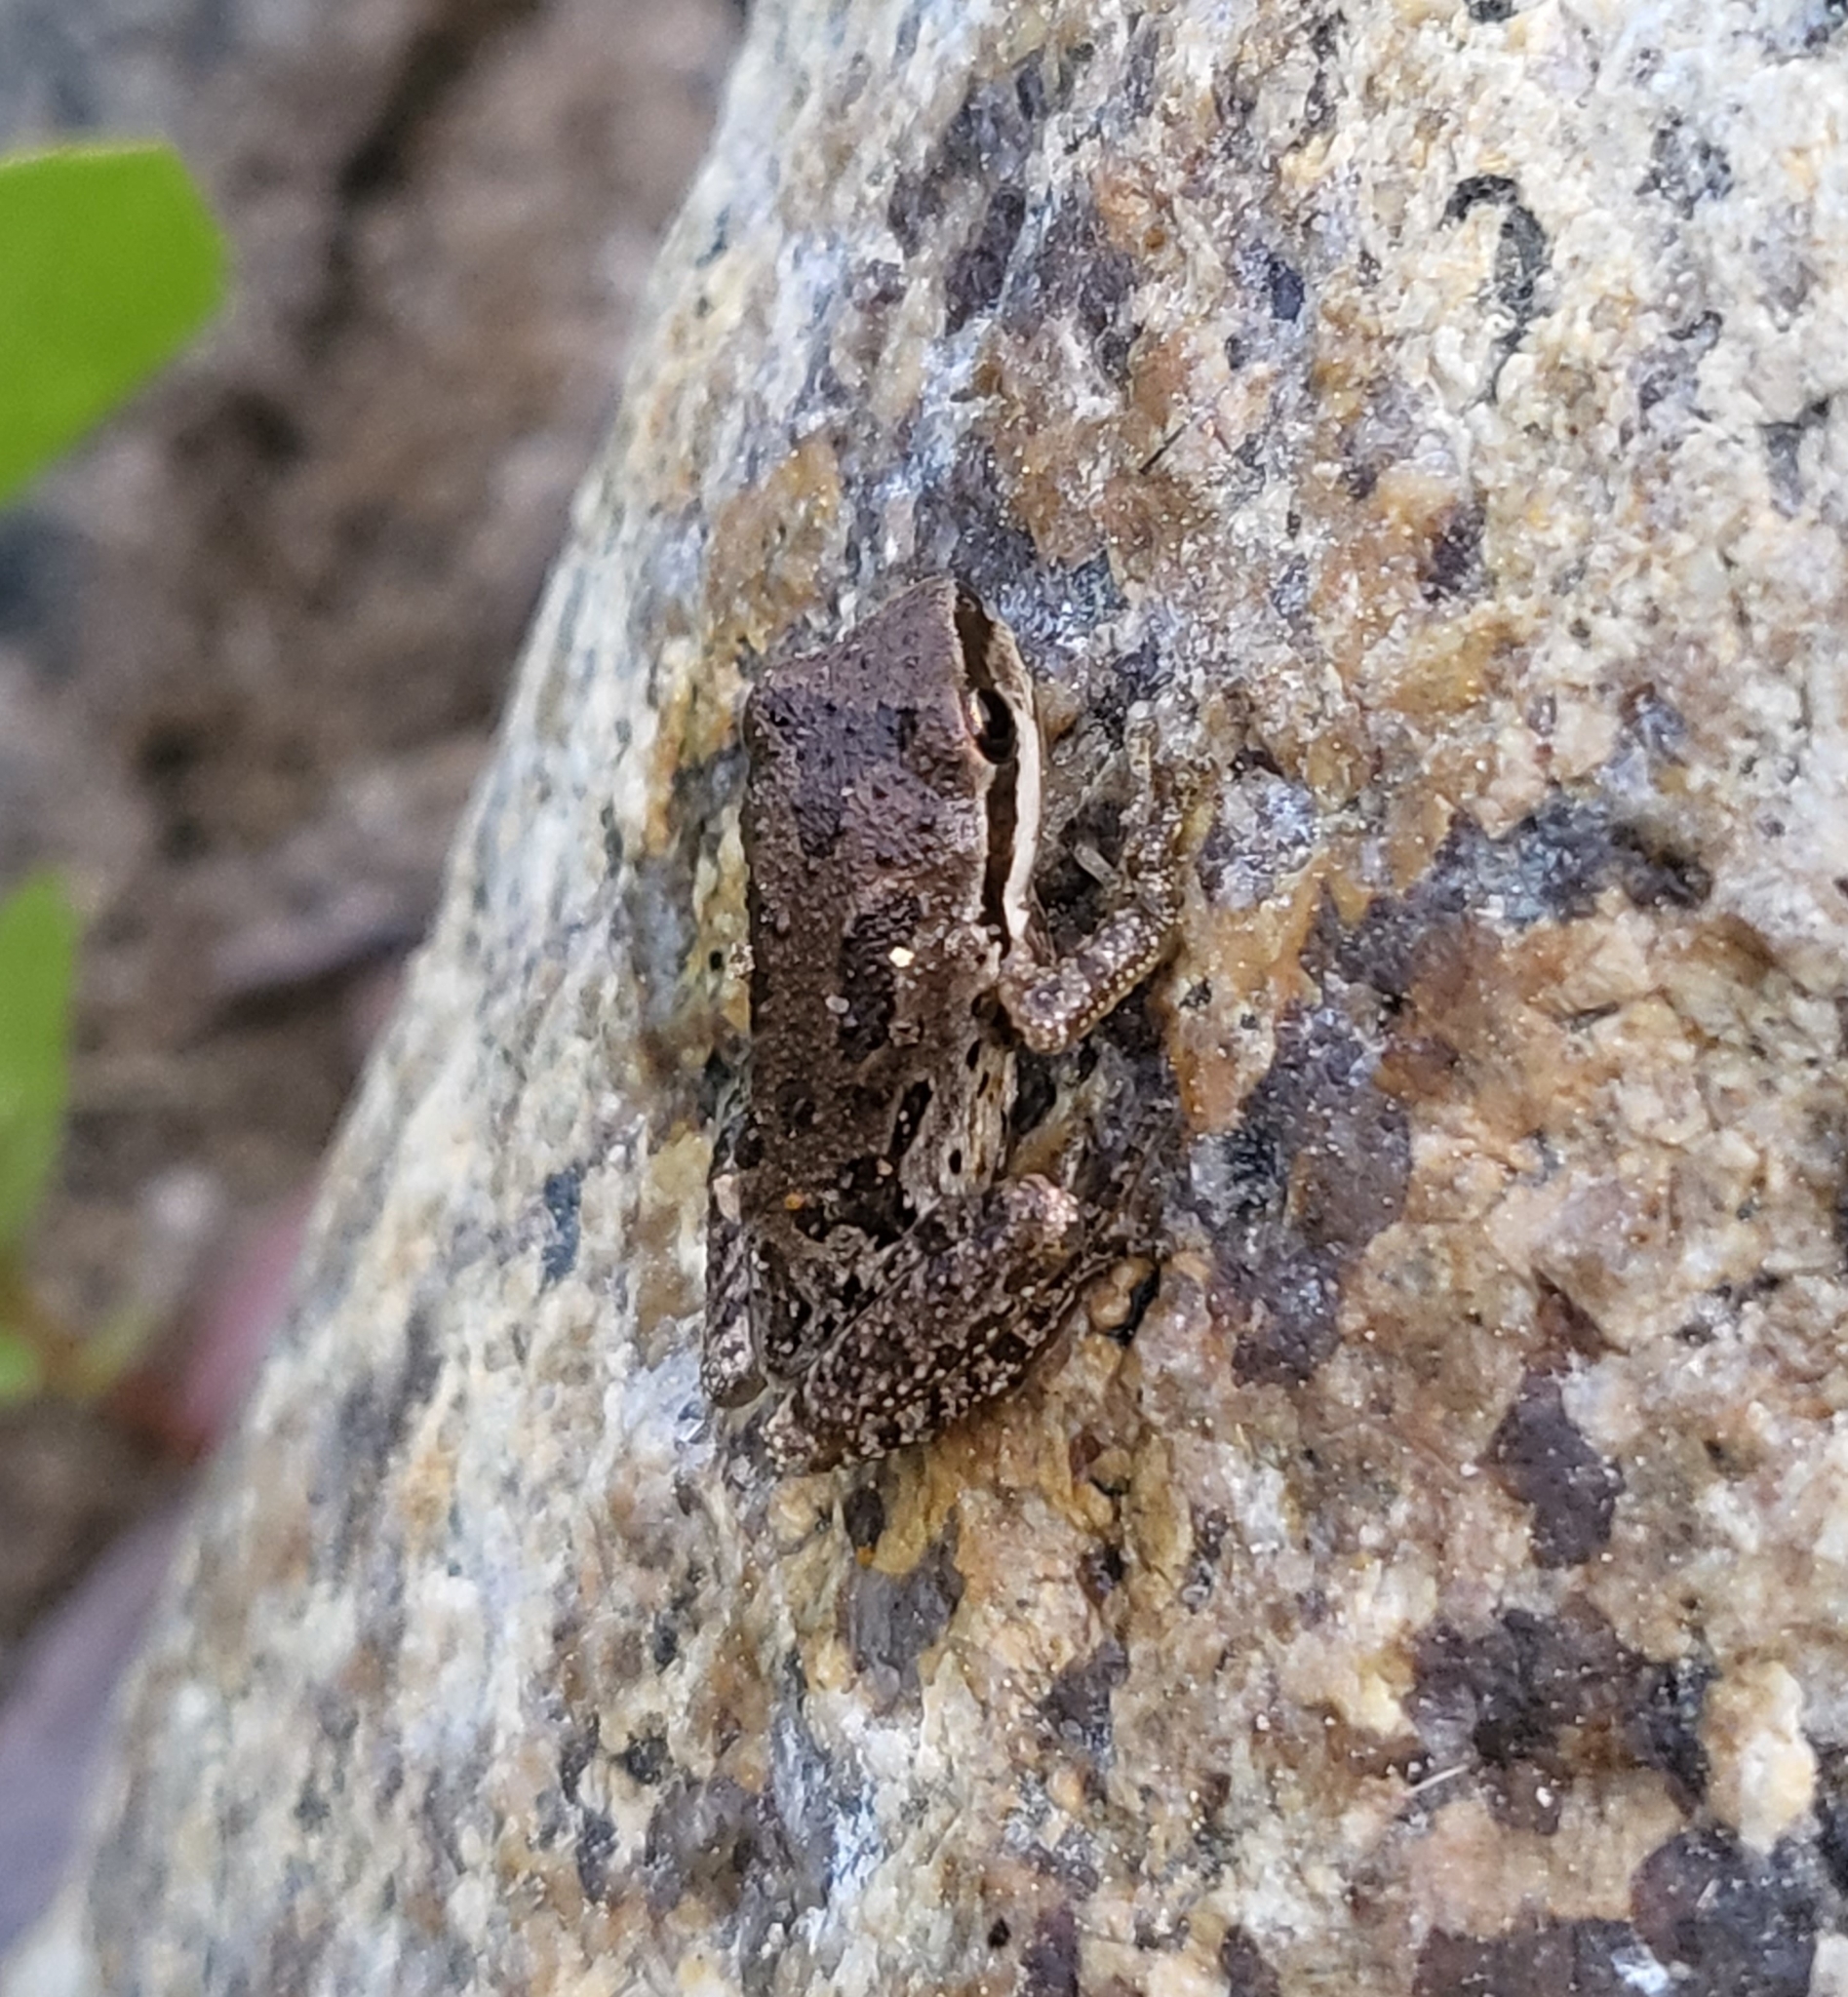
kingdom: Animalia
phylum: Chordata
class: Amphibia
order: Anura
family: Hylidae
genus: Pseudacris
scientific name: Pseudacris regilla
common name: Pacific chorus frog
